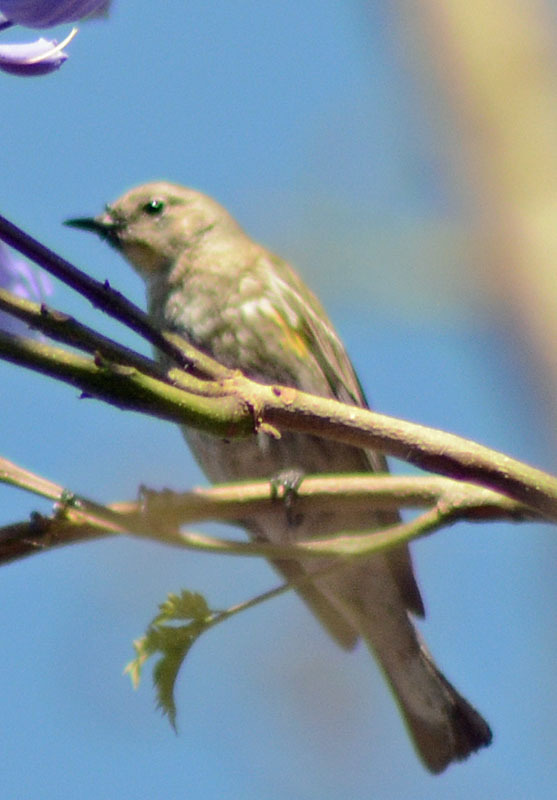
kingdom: Animalia
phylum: Chordata
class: Aves
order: Passeriformes
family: Parulidae
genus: Setophaga
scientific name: Setophaga coronata
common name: Myrtle warbler
